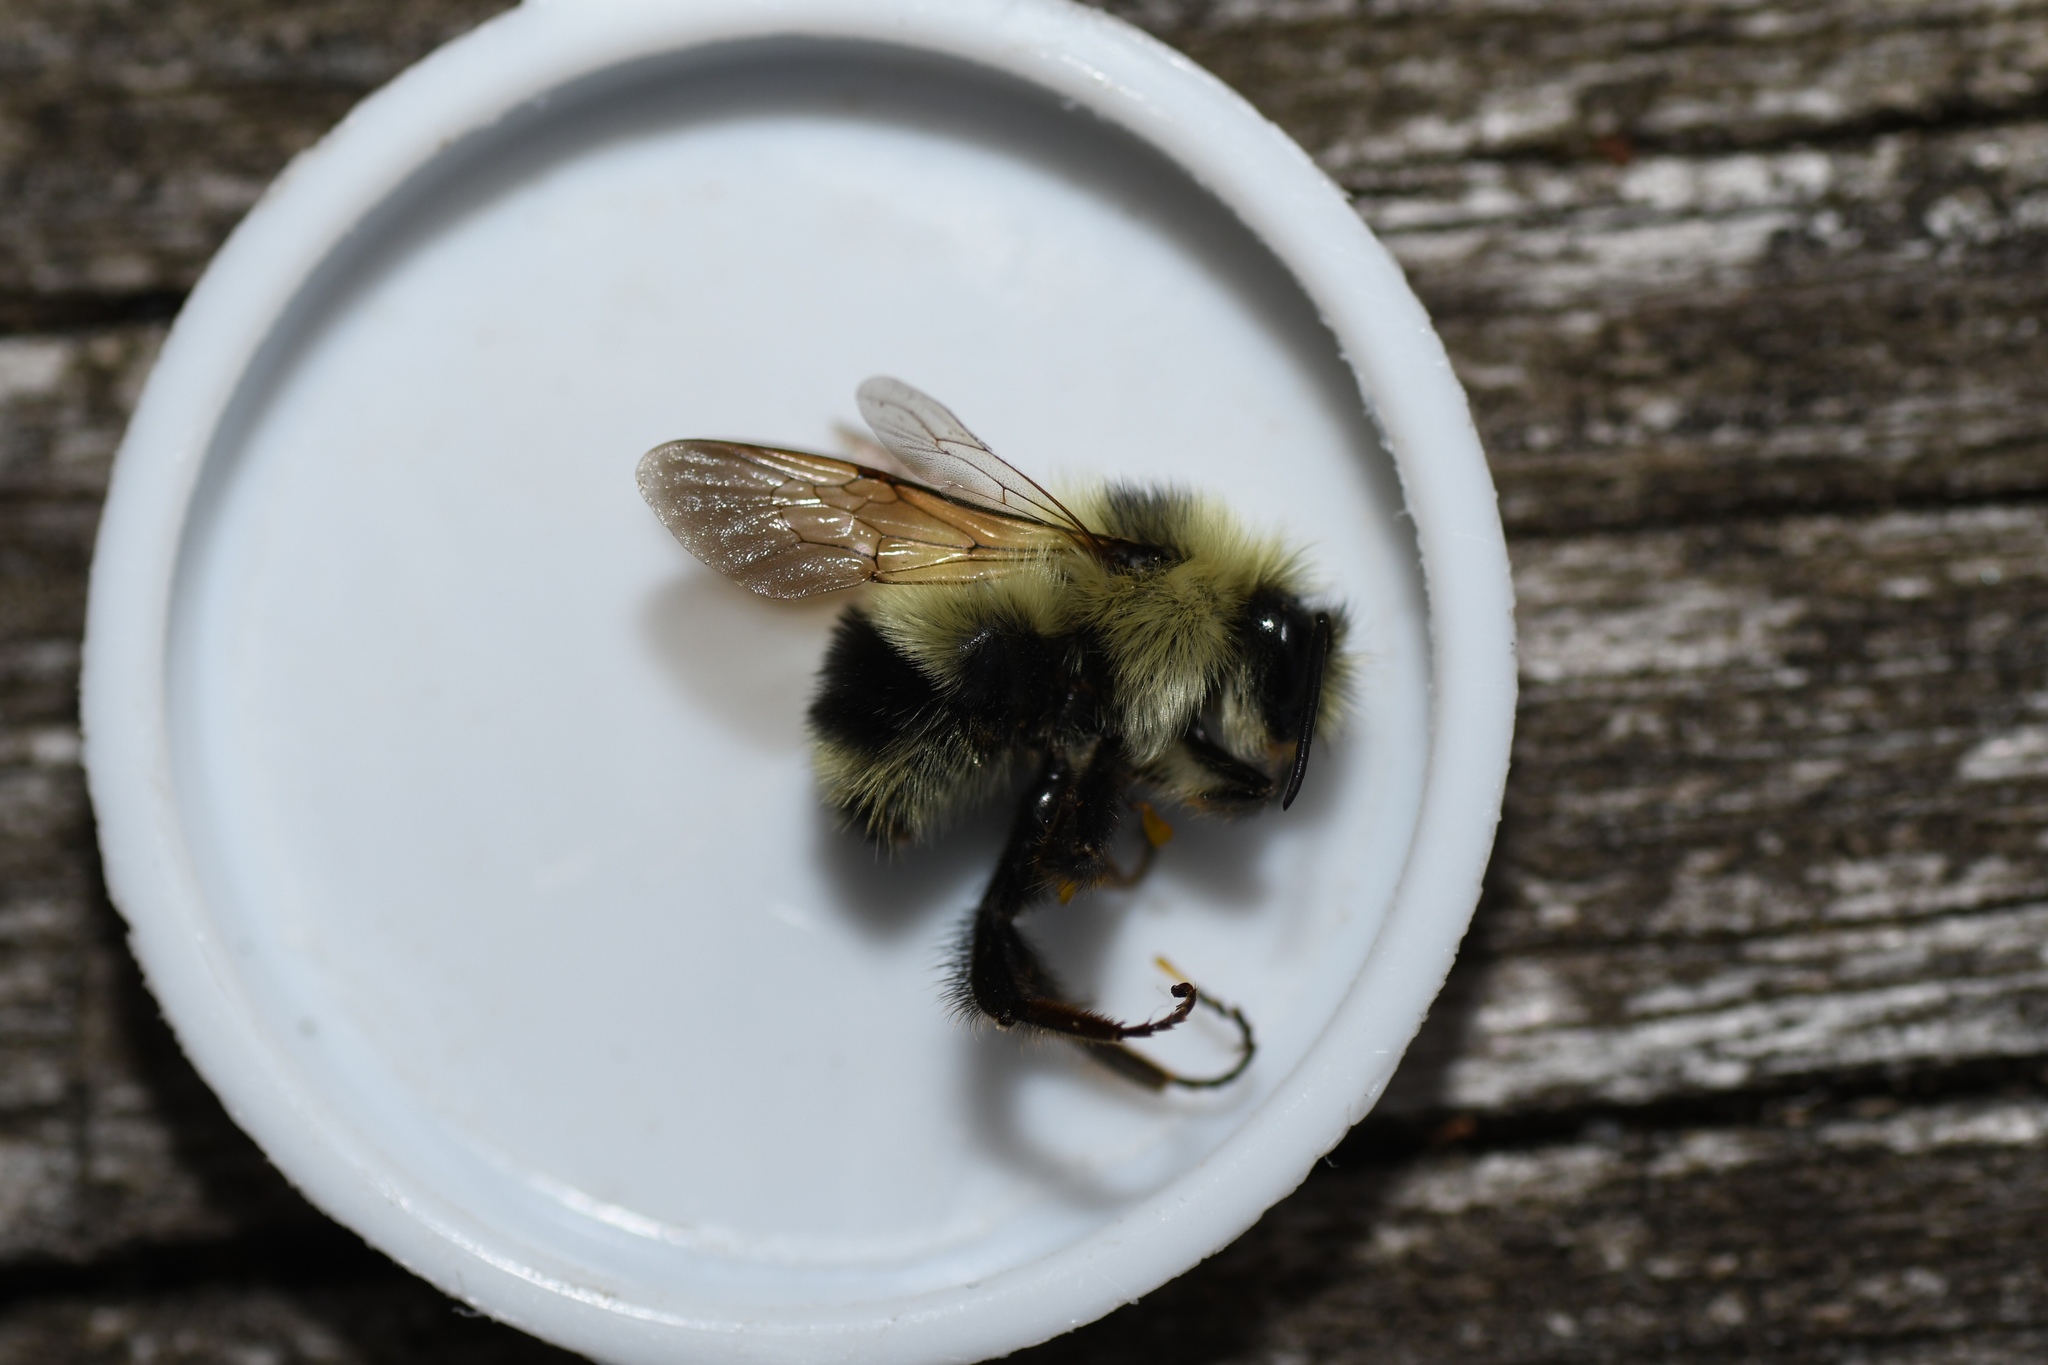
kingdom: Animalia
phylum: Arthropoda
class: Insecta
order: Hymenoptera
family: Apidae
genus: Bombus
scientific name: Bombus sandersoni
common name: Sanderson bumble bee
